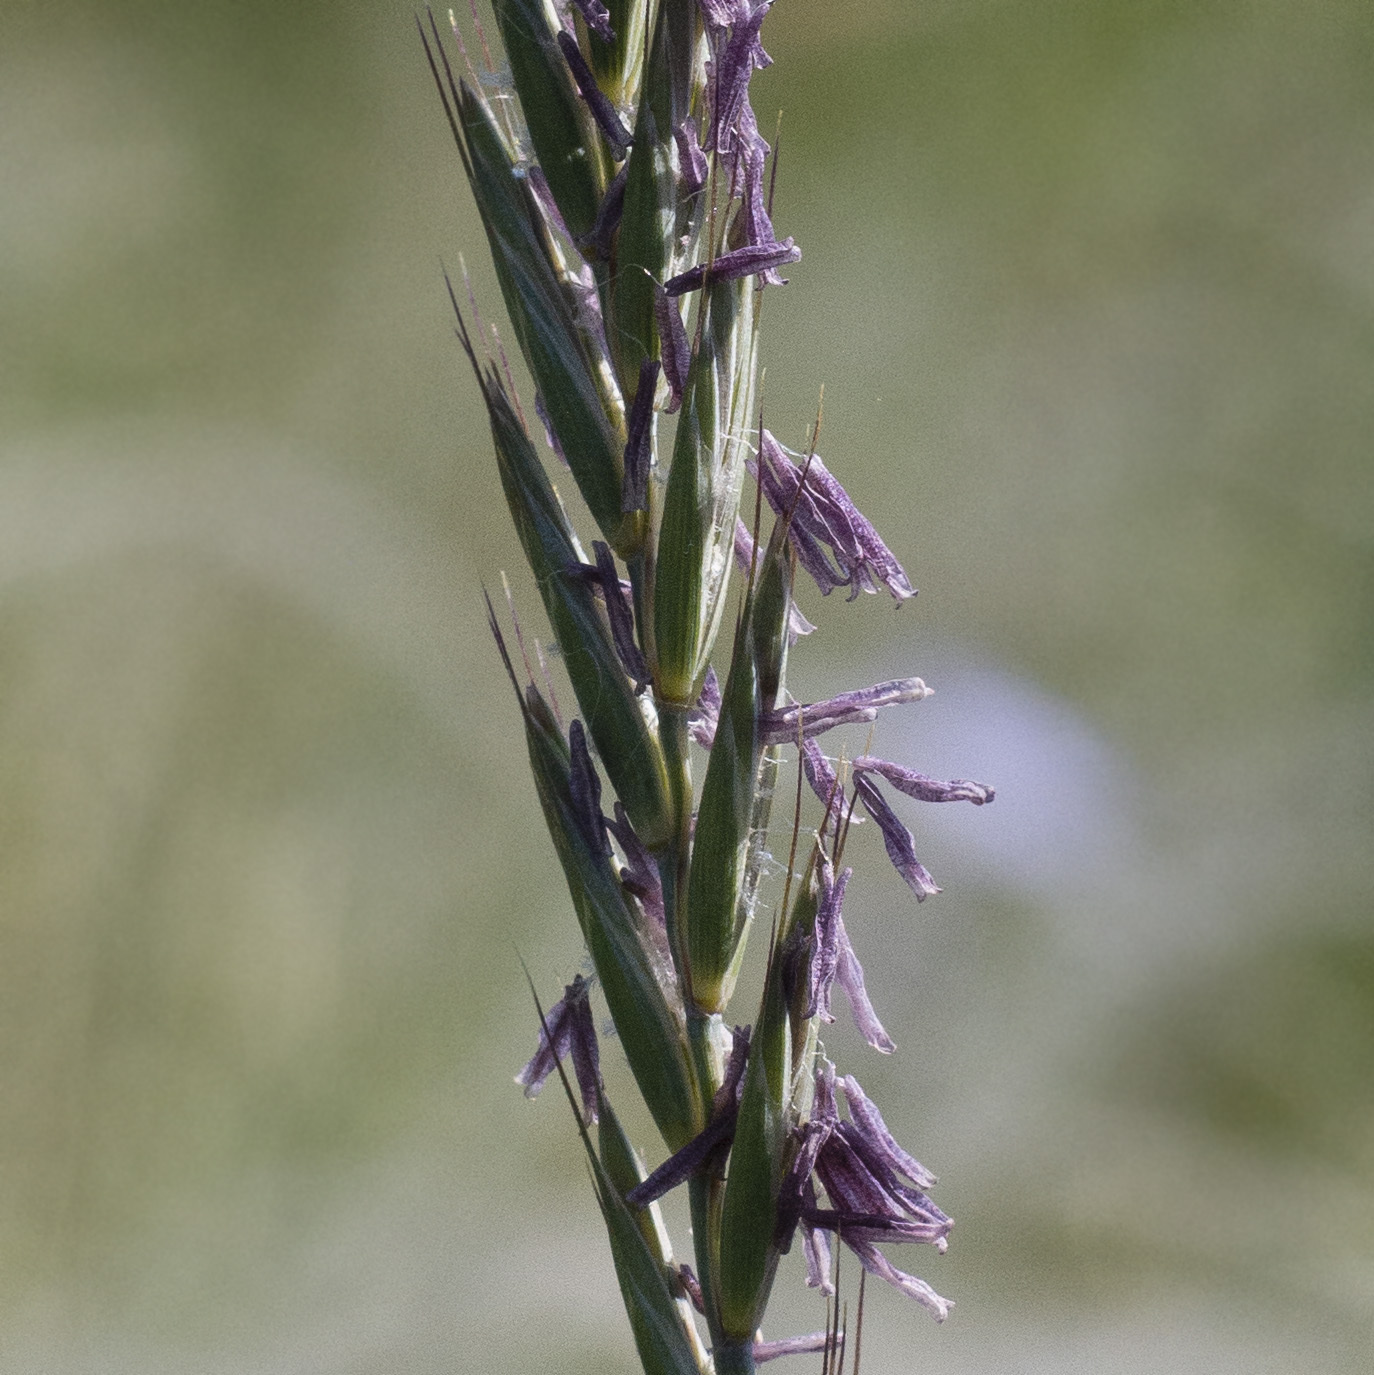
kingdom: Plantae
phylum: Tracheophyta
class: Liliopsida
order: Poales
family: Poaceae
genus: Elymus
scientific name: Elymus repens
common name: Quackgrass
